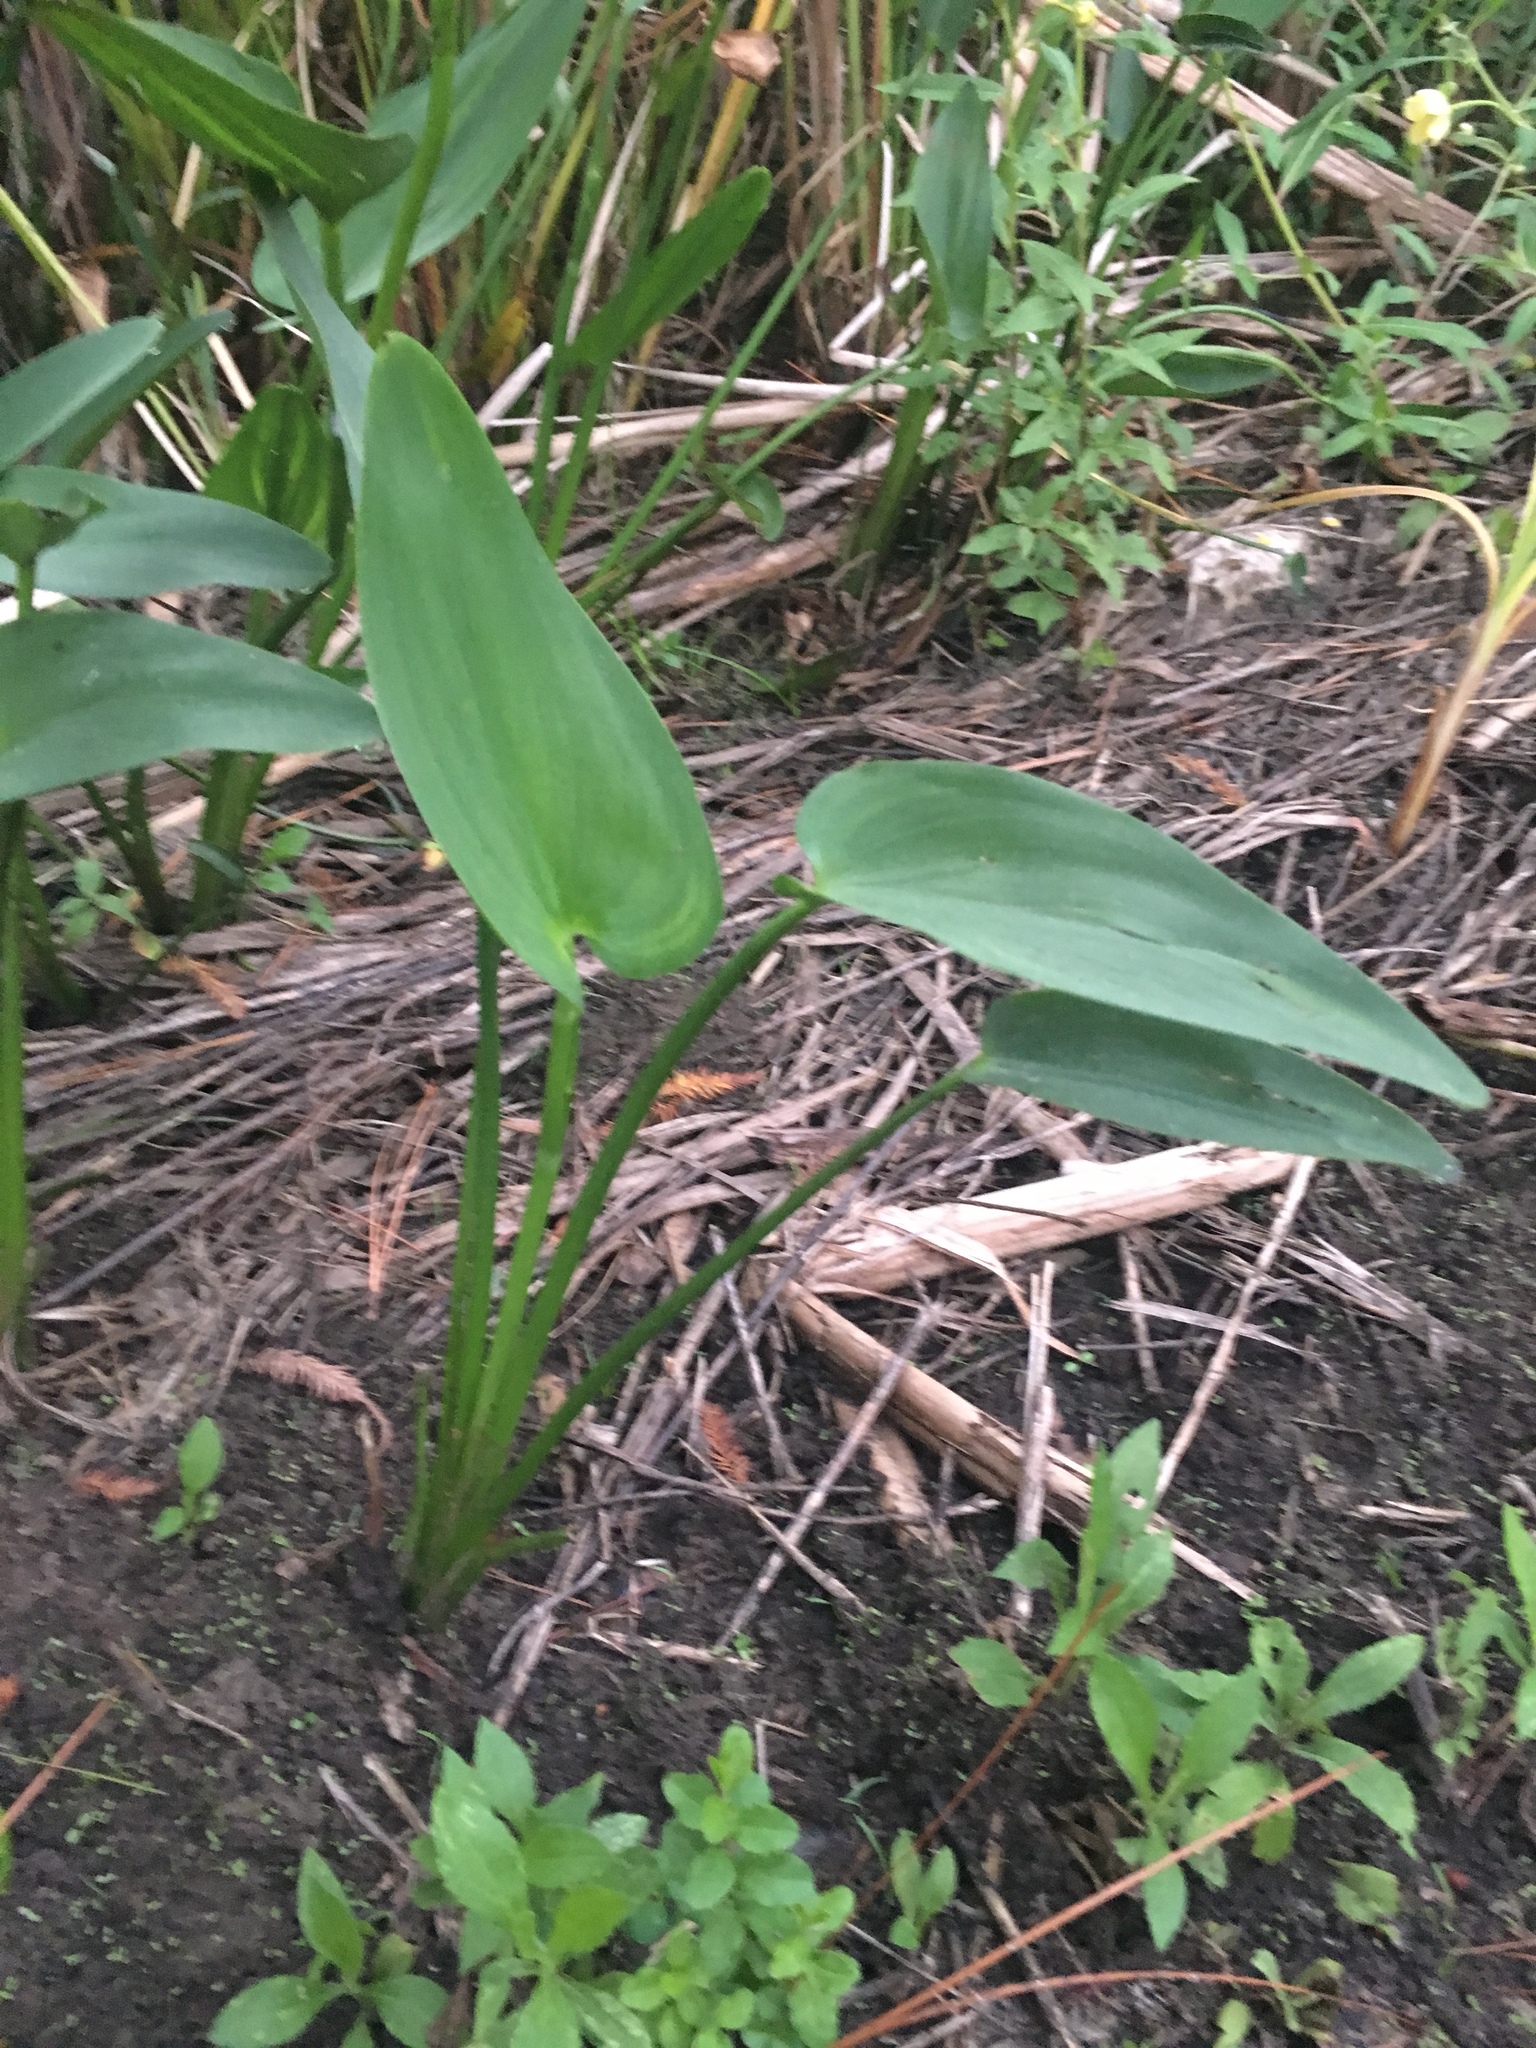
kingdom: Plantae
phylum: Tracheophyta
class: Liliopsida
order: Commelinales
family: Pontederiaceae
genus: Pontederia
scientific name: Pontederia cordata
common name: Pickerelweed
